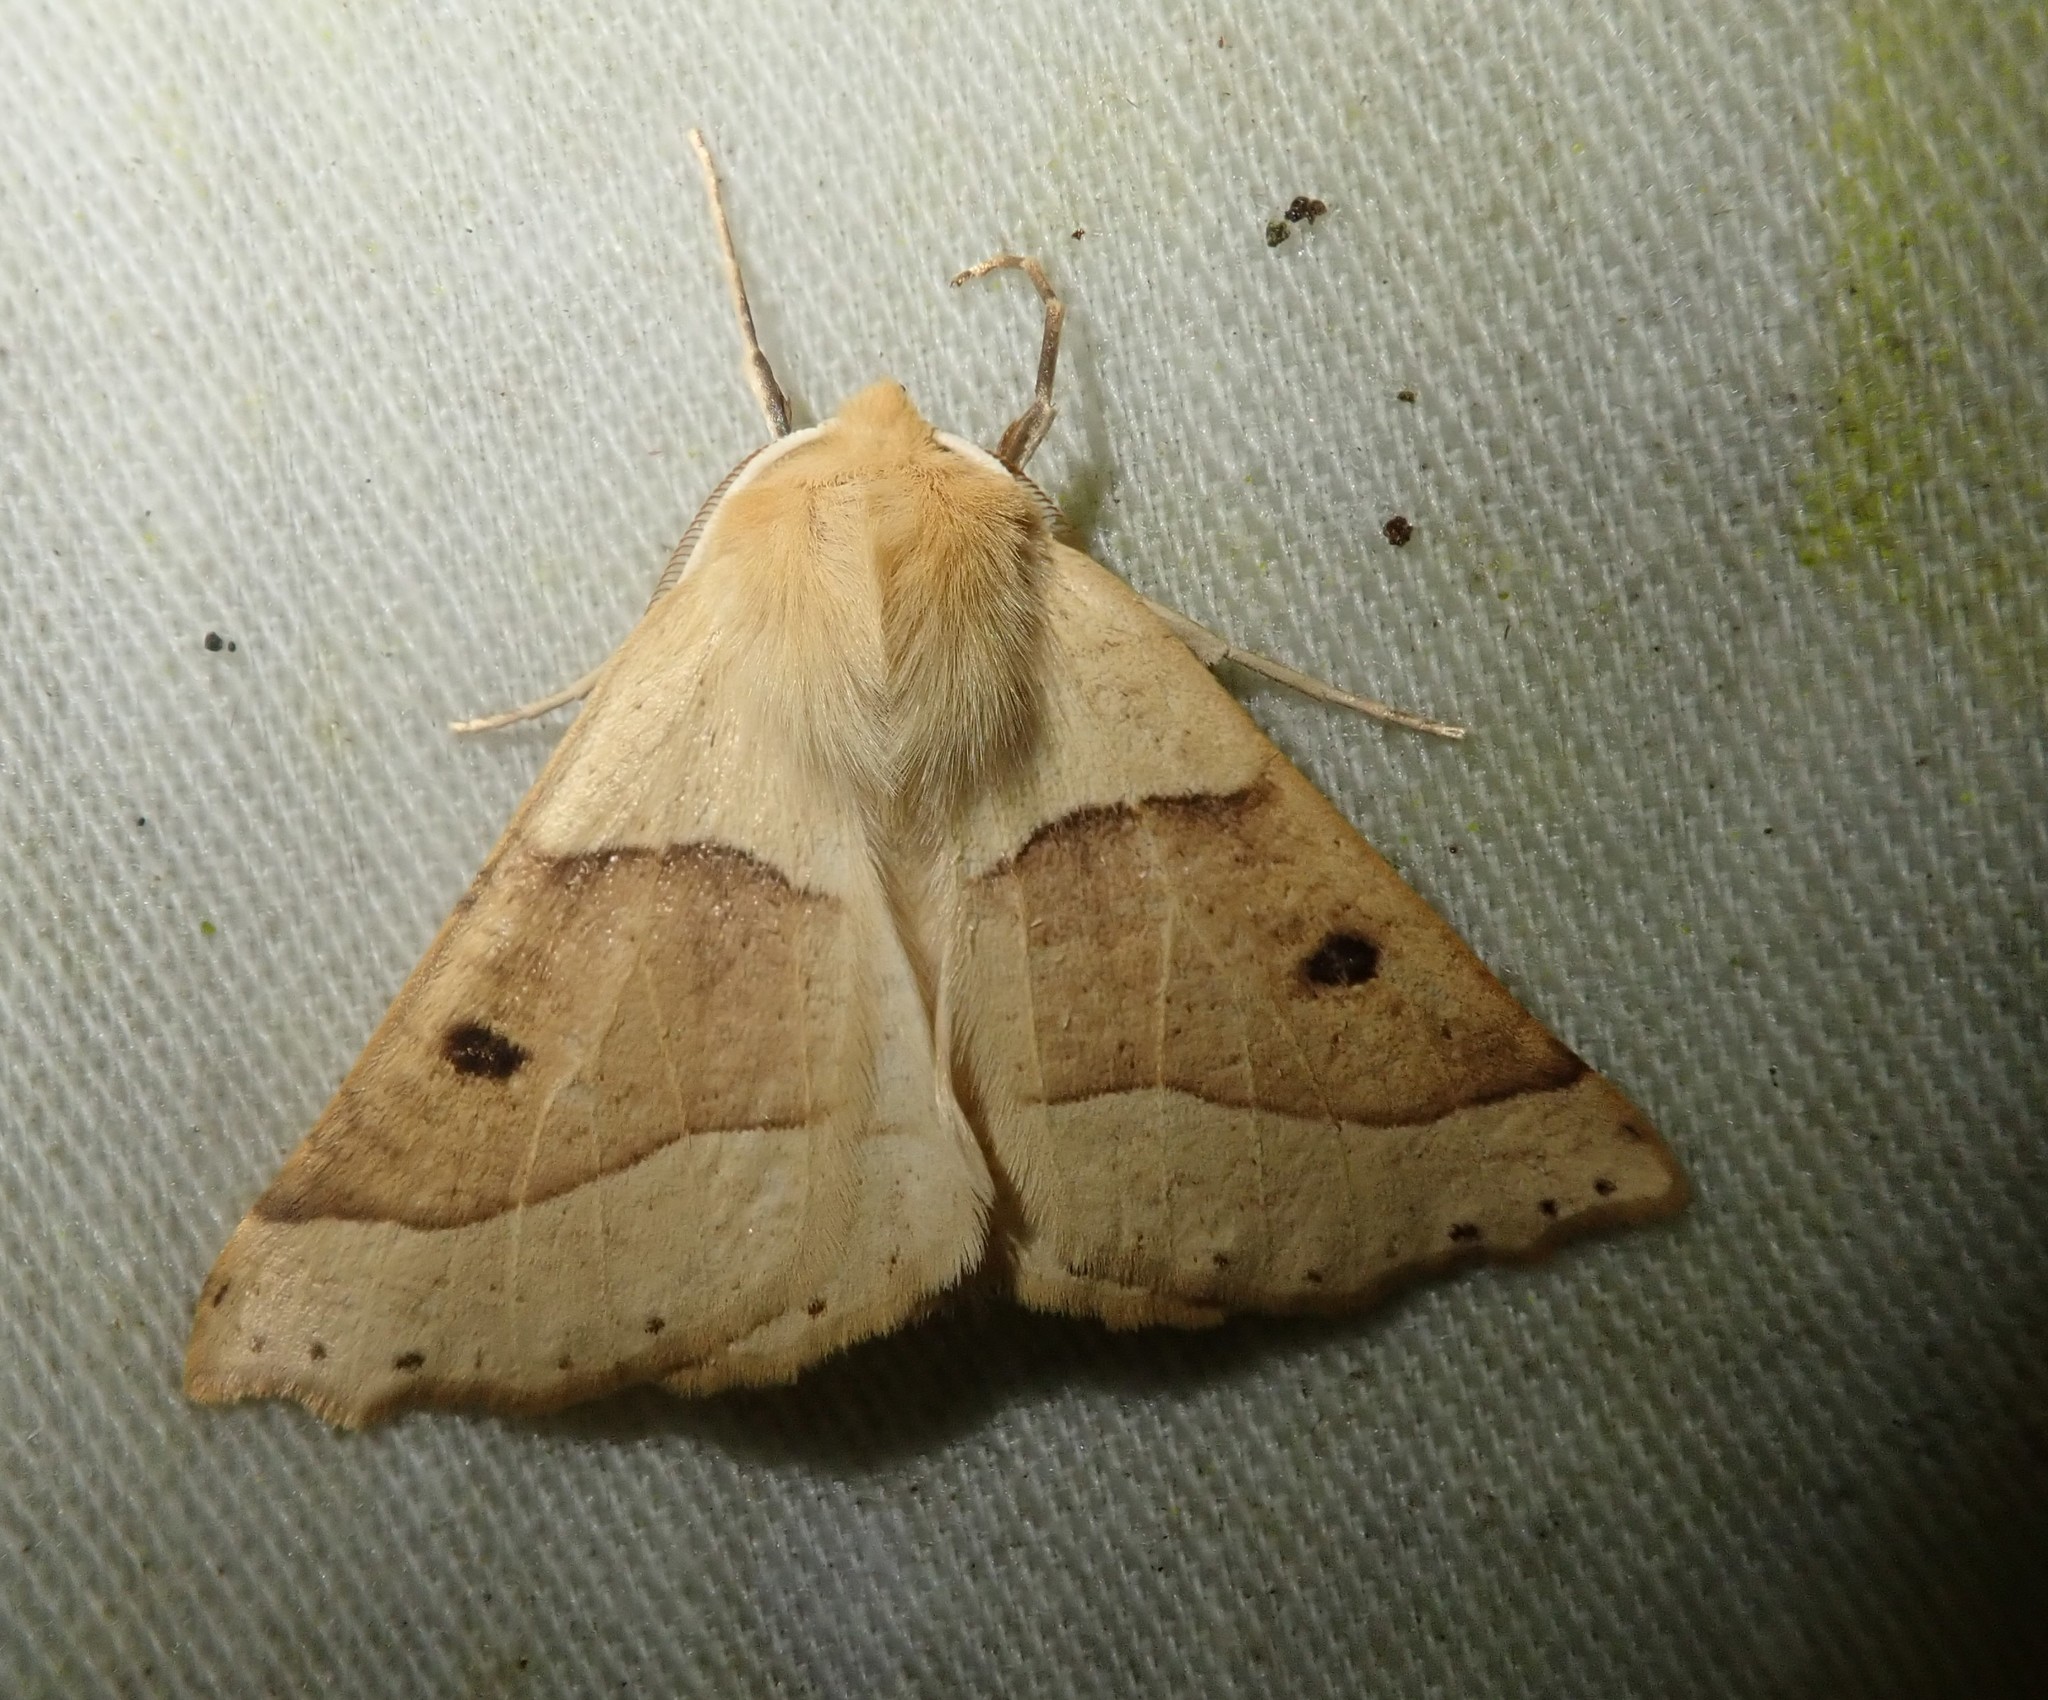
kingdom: Animalia
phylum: Arthropoda
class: Insecta
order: Lepidoptera
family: Geometridae
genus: Crocallis
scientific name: Crocallis elinguaria
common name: Scalloped oak
